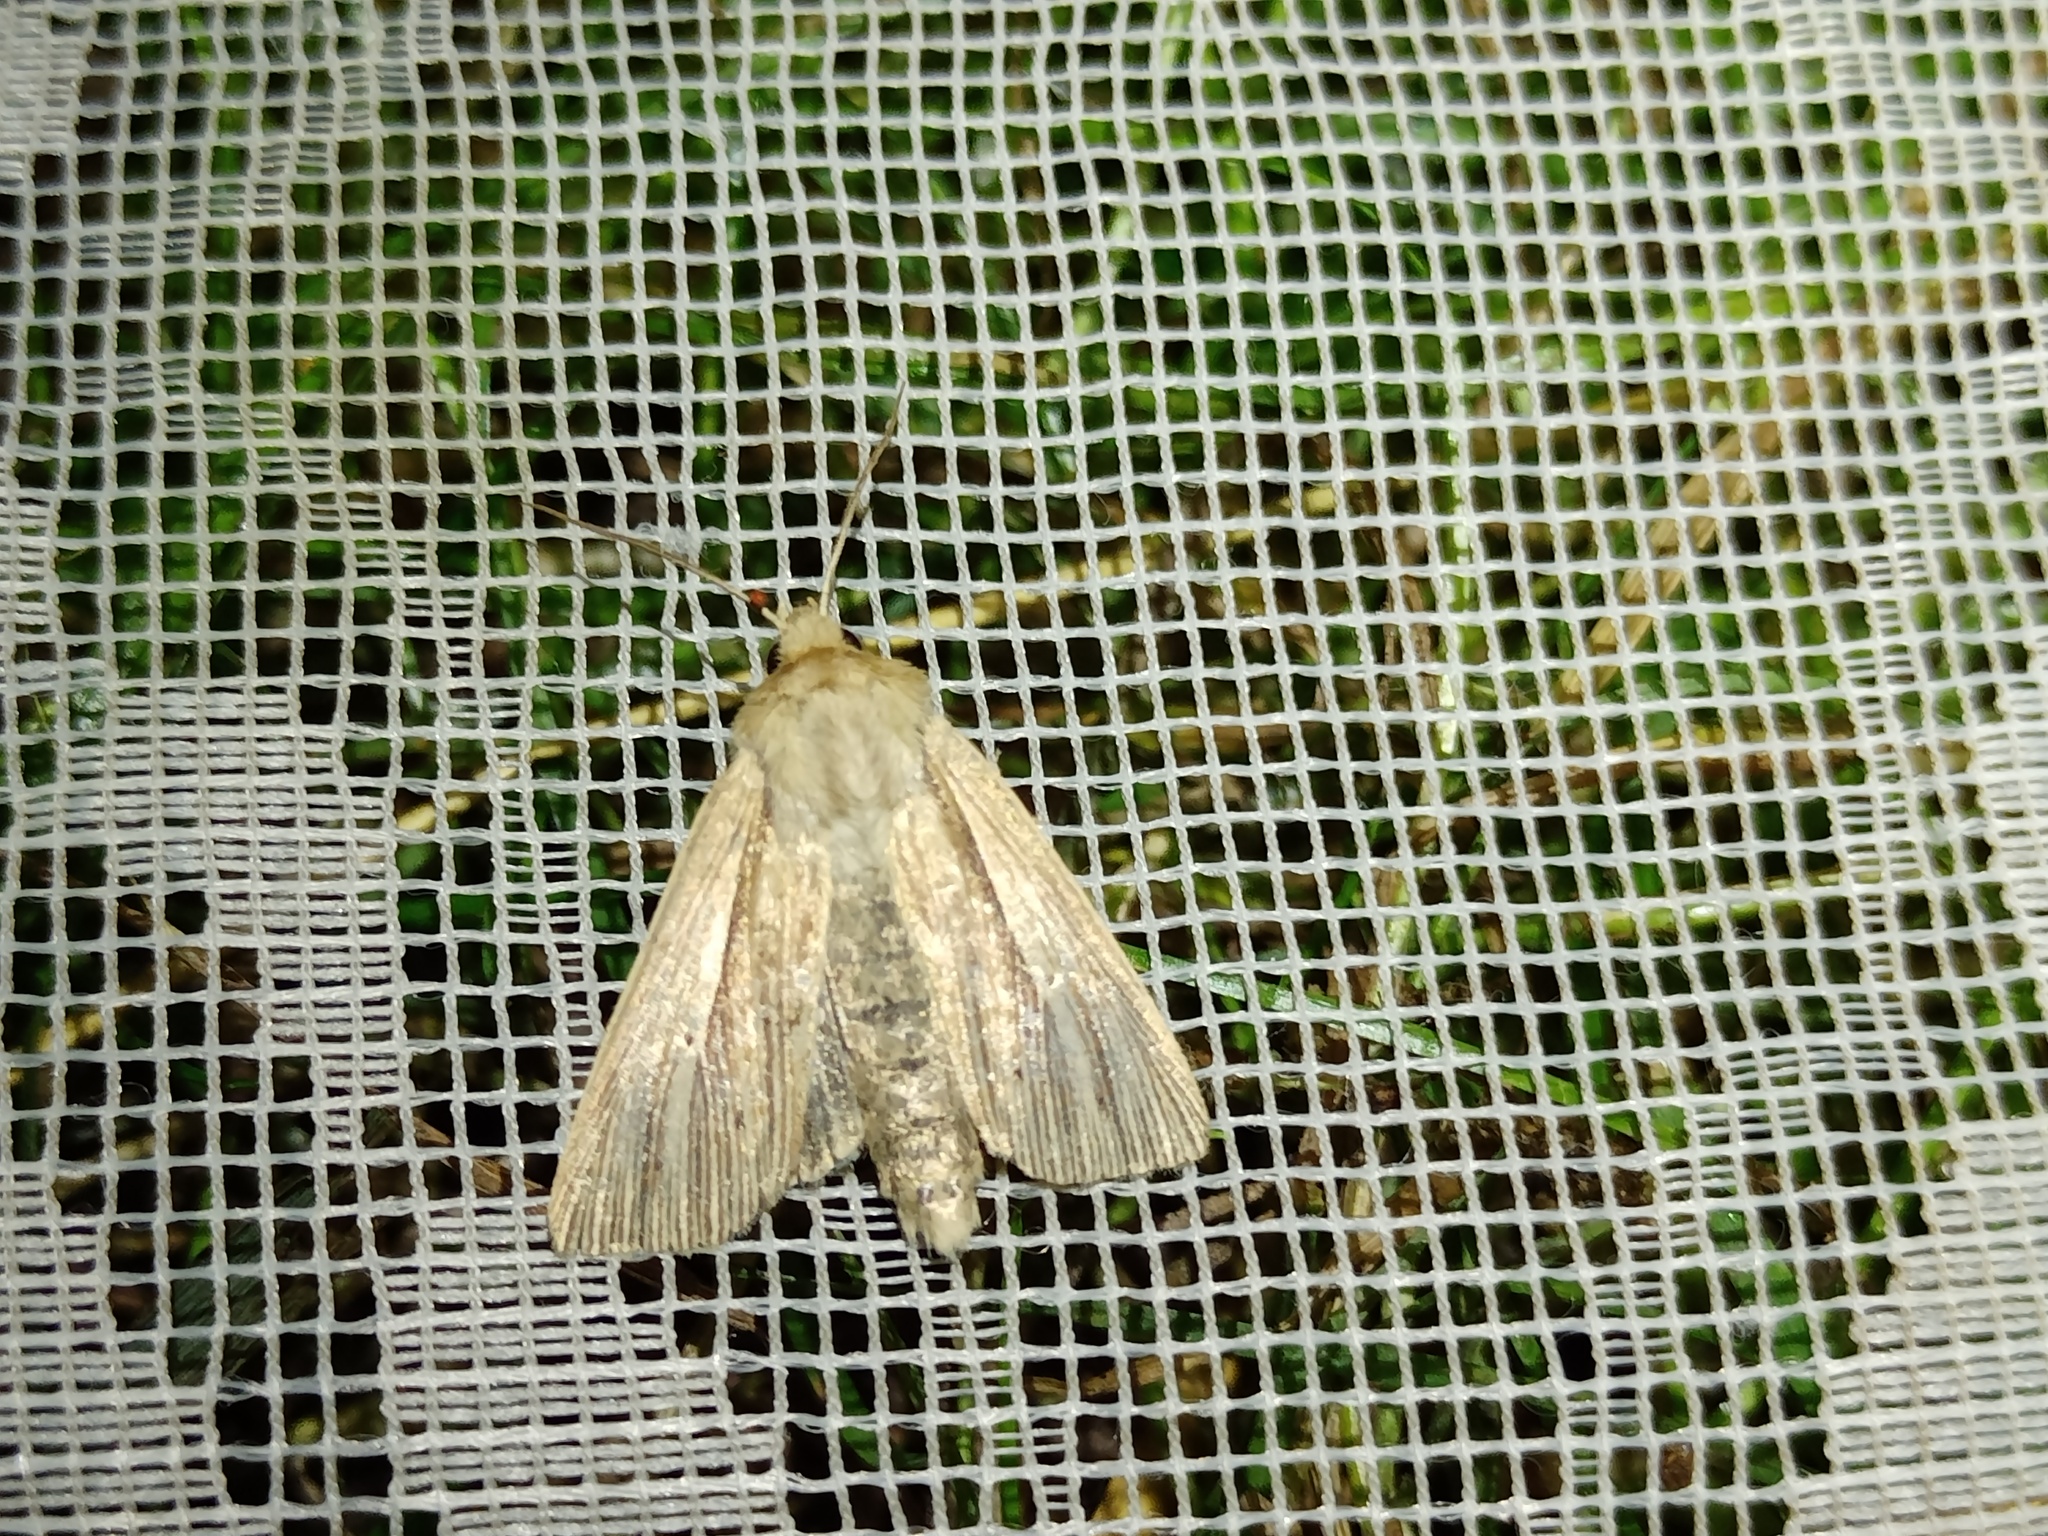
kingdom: Animalia
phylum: Arthropoda
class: Insecta
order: Lepidoptera
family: Noctuidae
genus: Mythimna
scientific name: Mythimna impura
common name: Smoky wainscot
